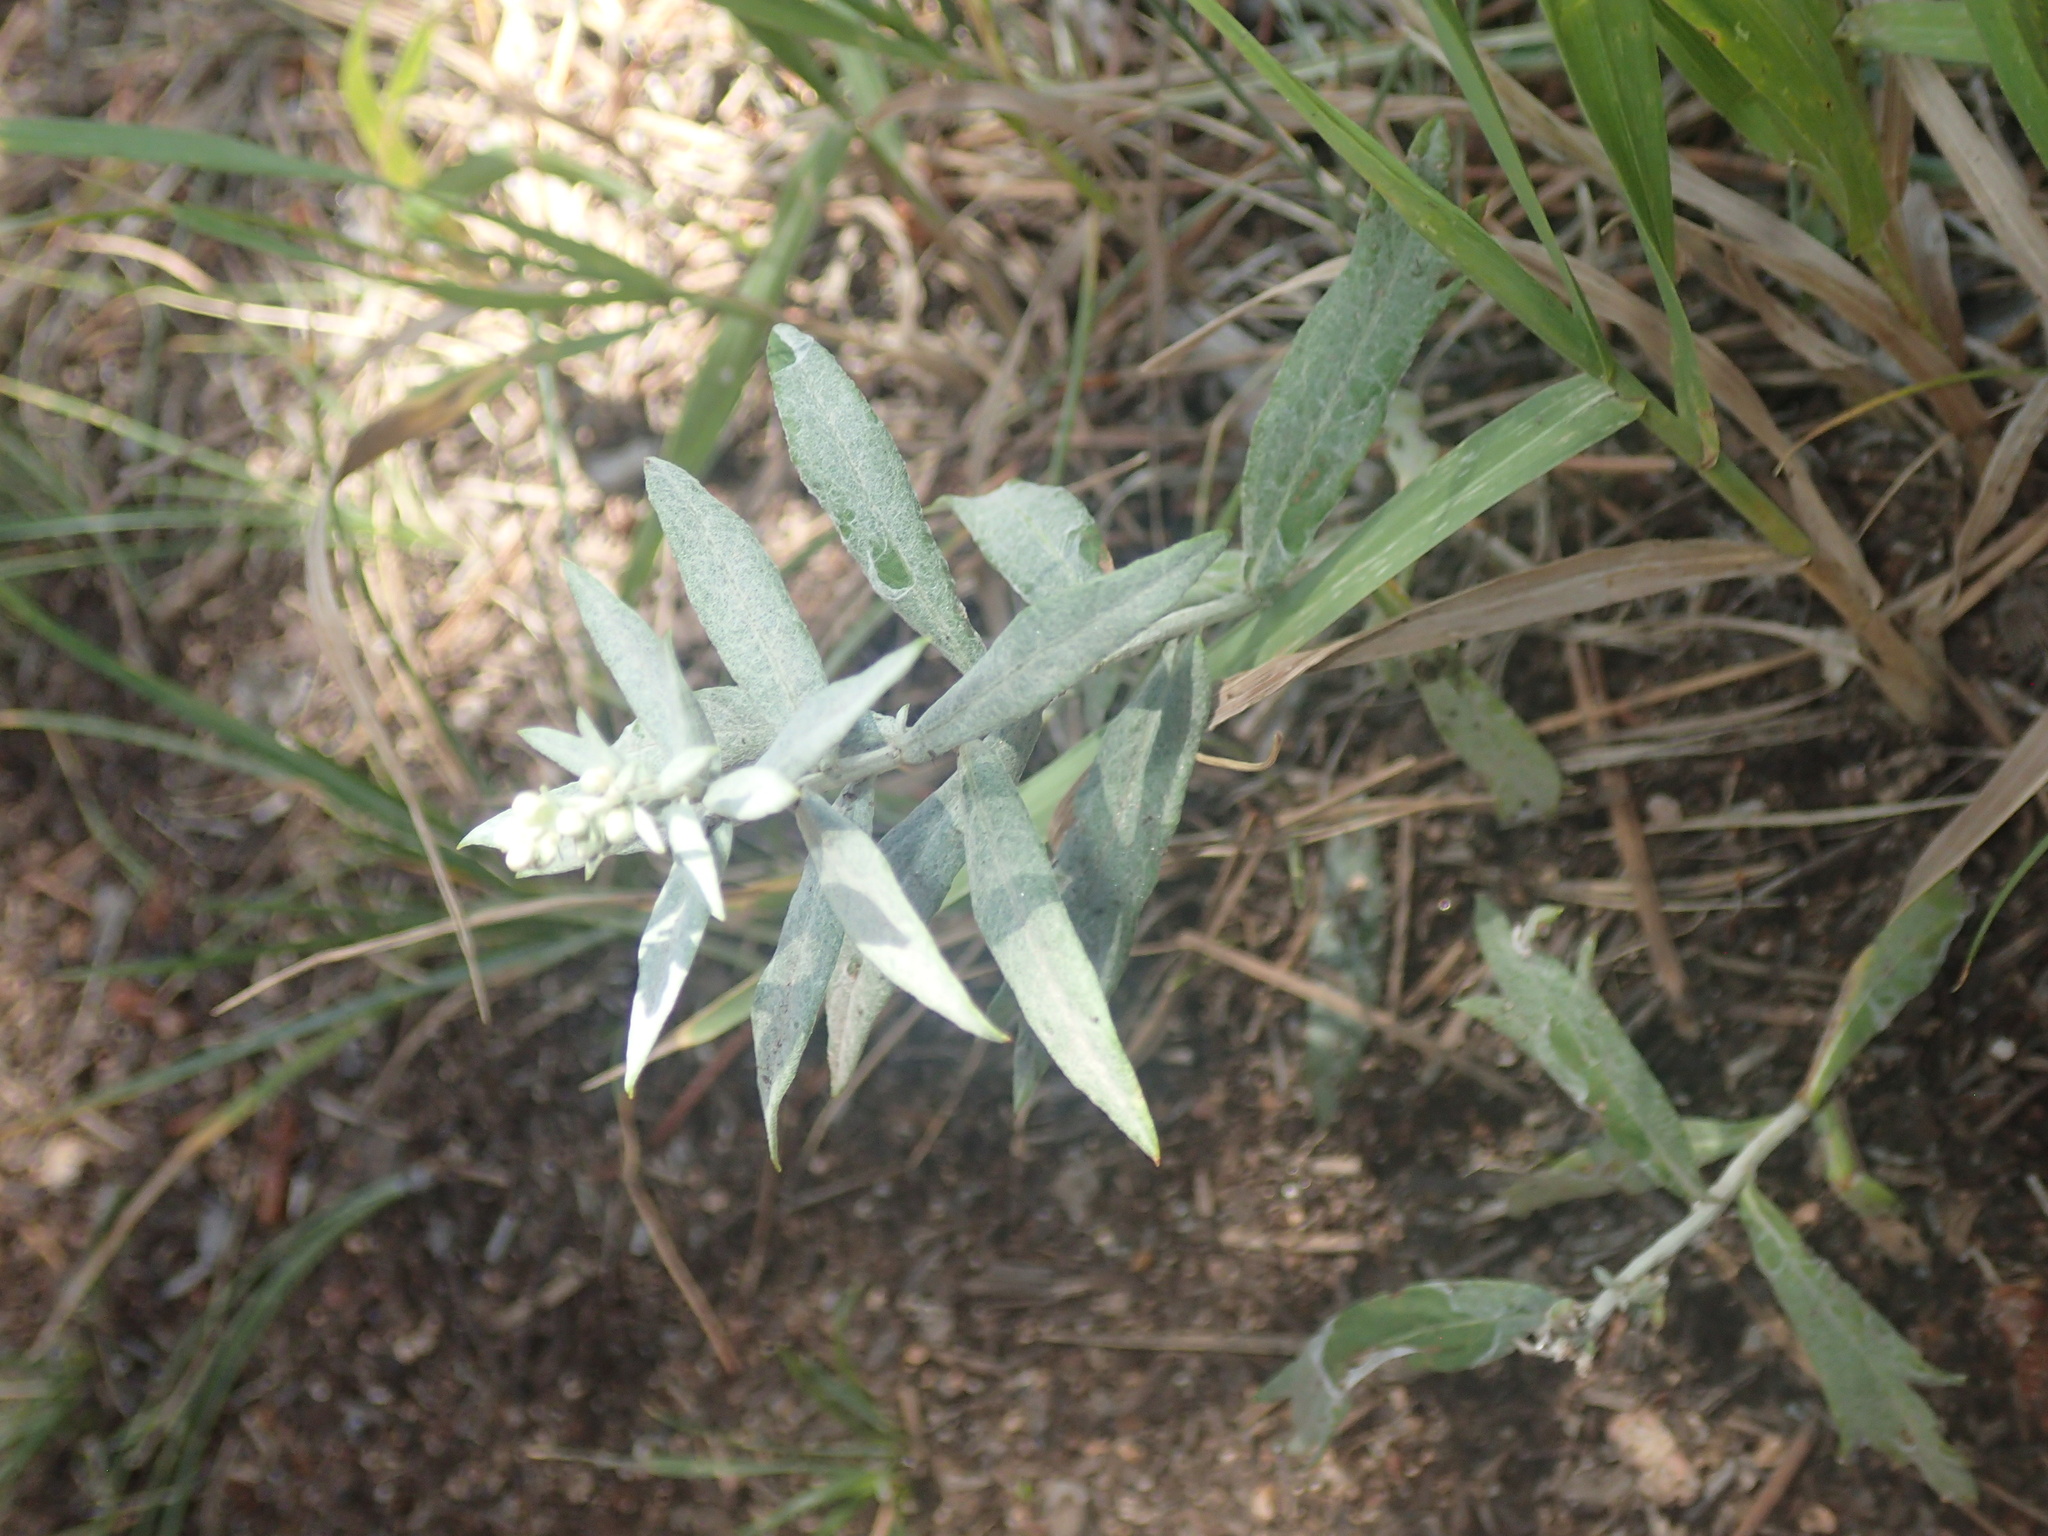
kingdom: Plantae
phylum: Tracheophyta
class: Magnoliopsida
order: Asterales
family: Asteraceae
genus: Artemisia
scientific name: Artemisia ludoviciana
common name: Western mugwort
